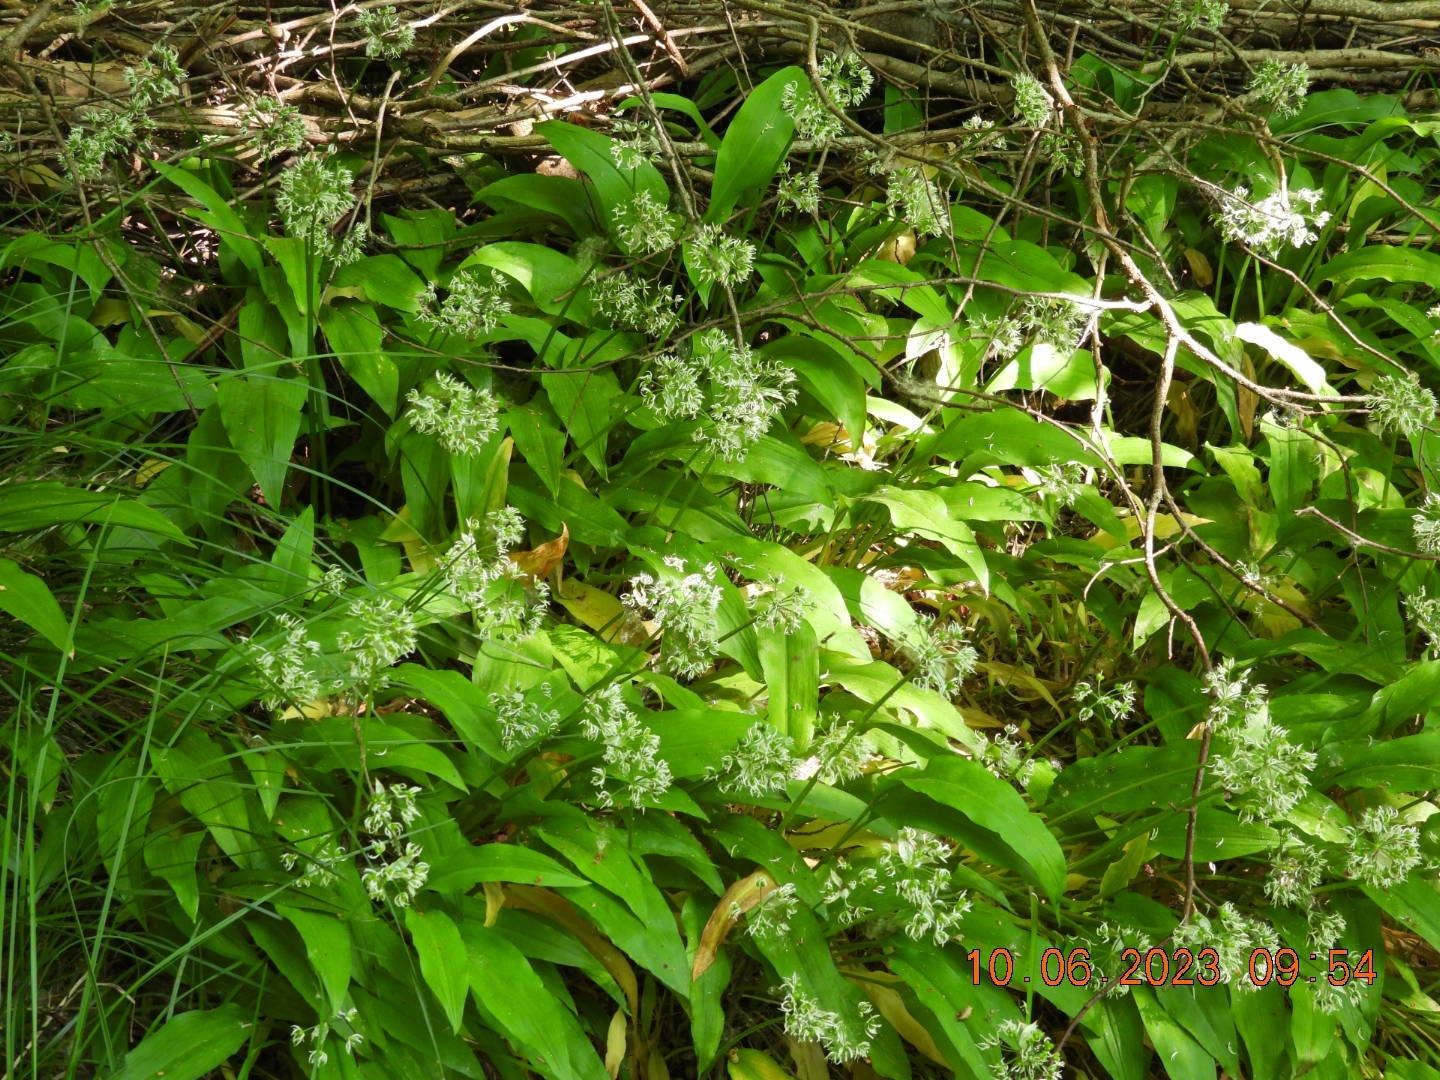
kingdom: Plantae
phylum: Tracheophyta
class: Liliopsida
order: Asparagales
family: Amaryllidaceae
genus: Allium
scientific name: Allium ursinum
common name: Ramsons
